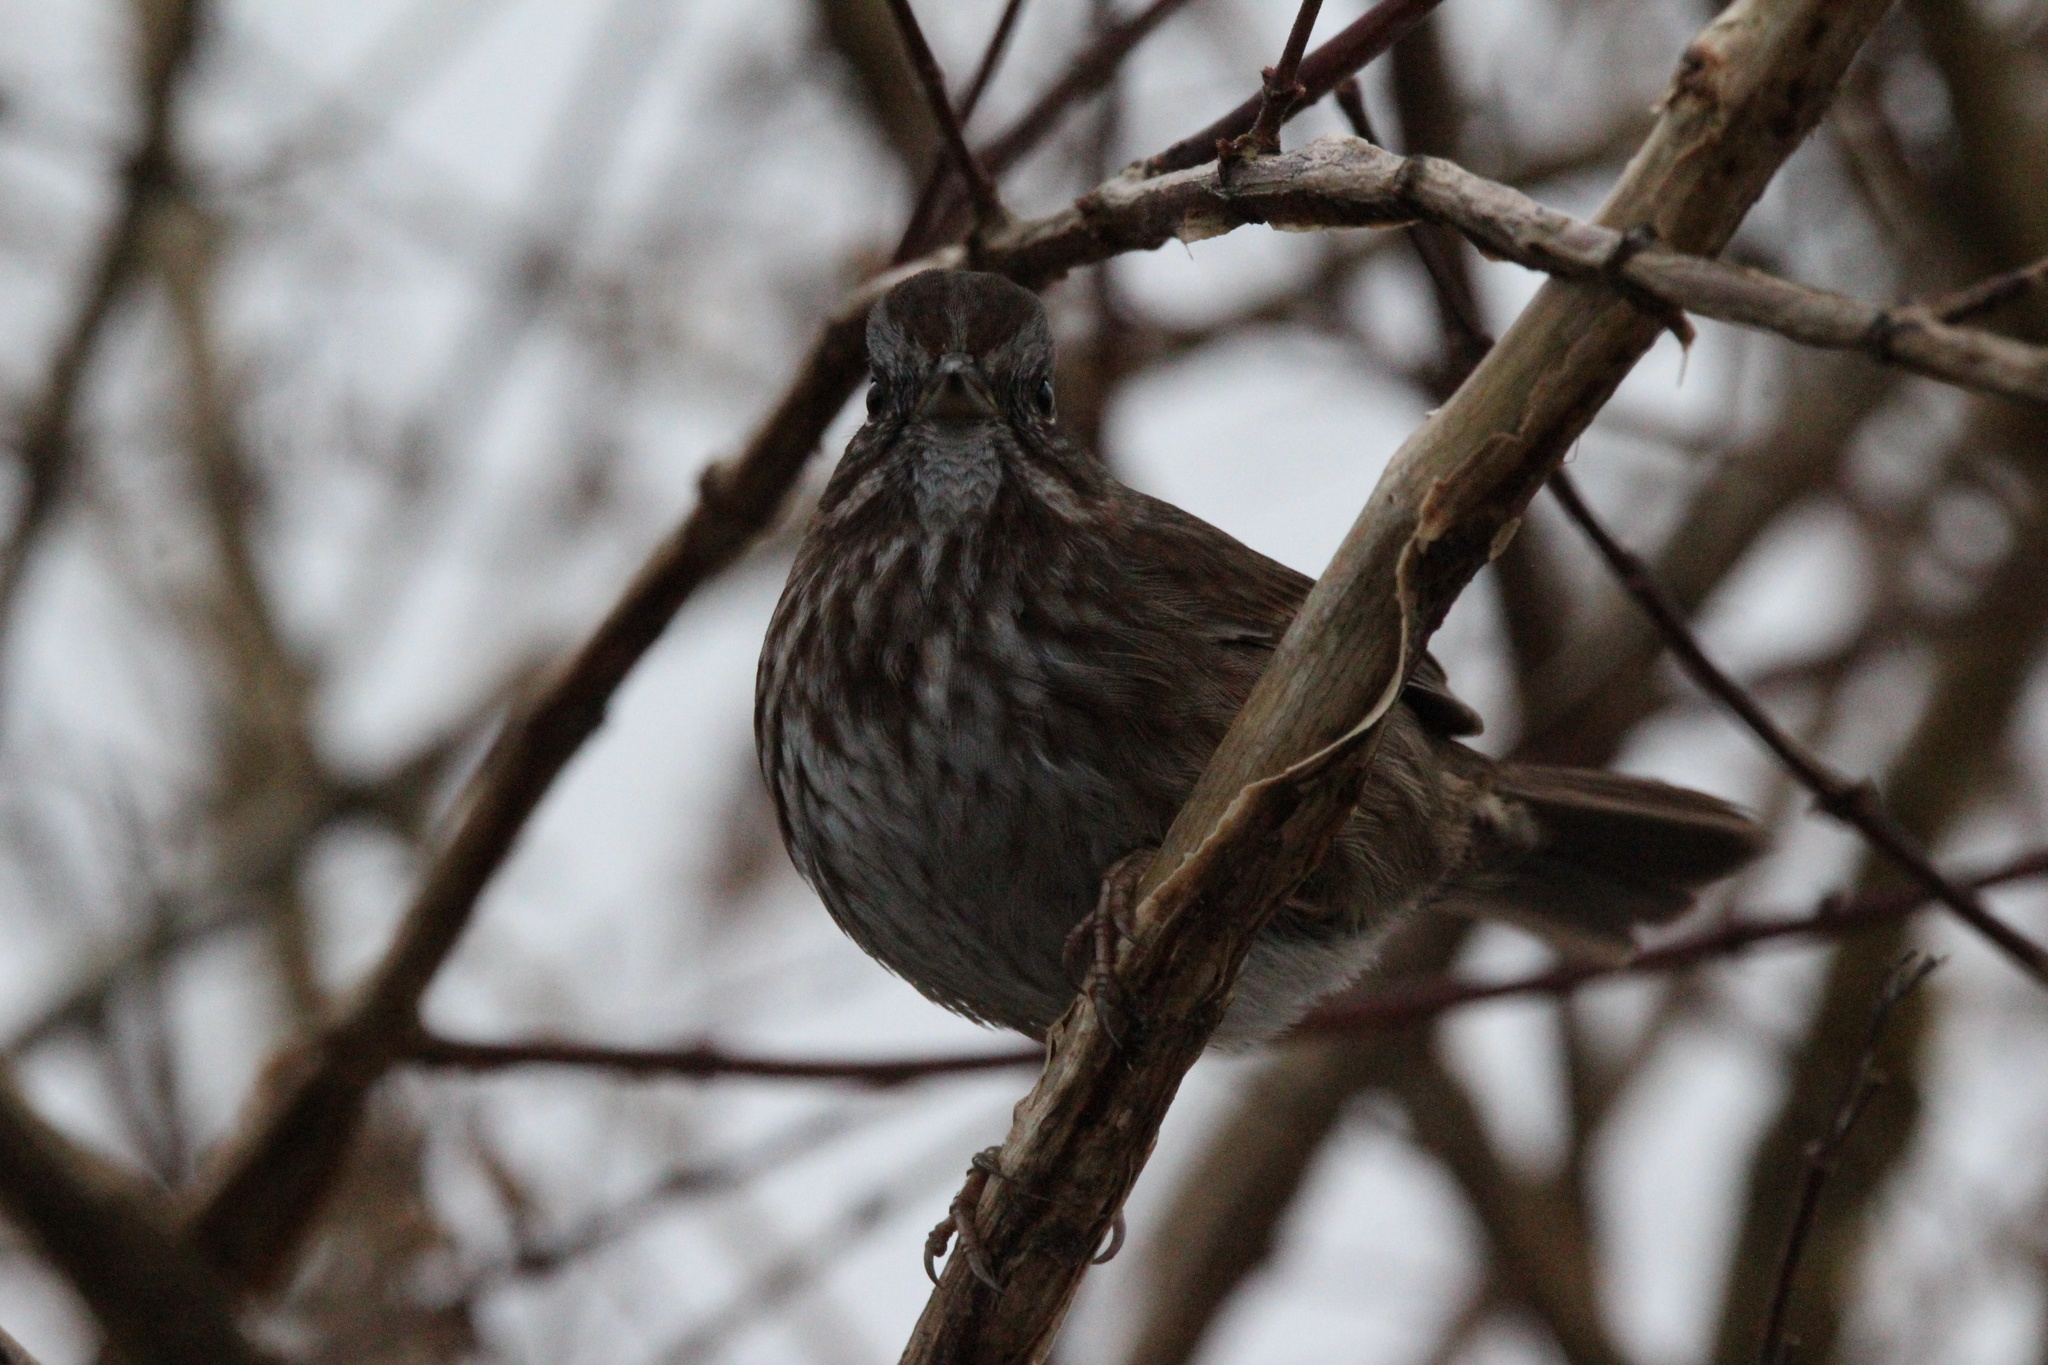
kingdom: Animalia
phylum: Chordata
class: Aves
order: Passeriformes
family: Passerellidae
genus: Melospiza
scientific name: Melospiza melodia
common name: Song sparrow
